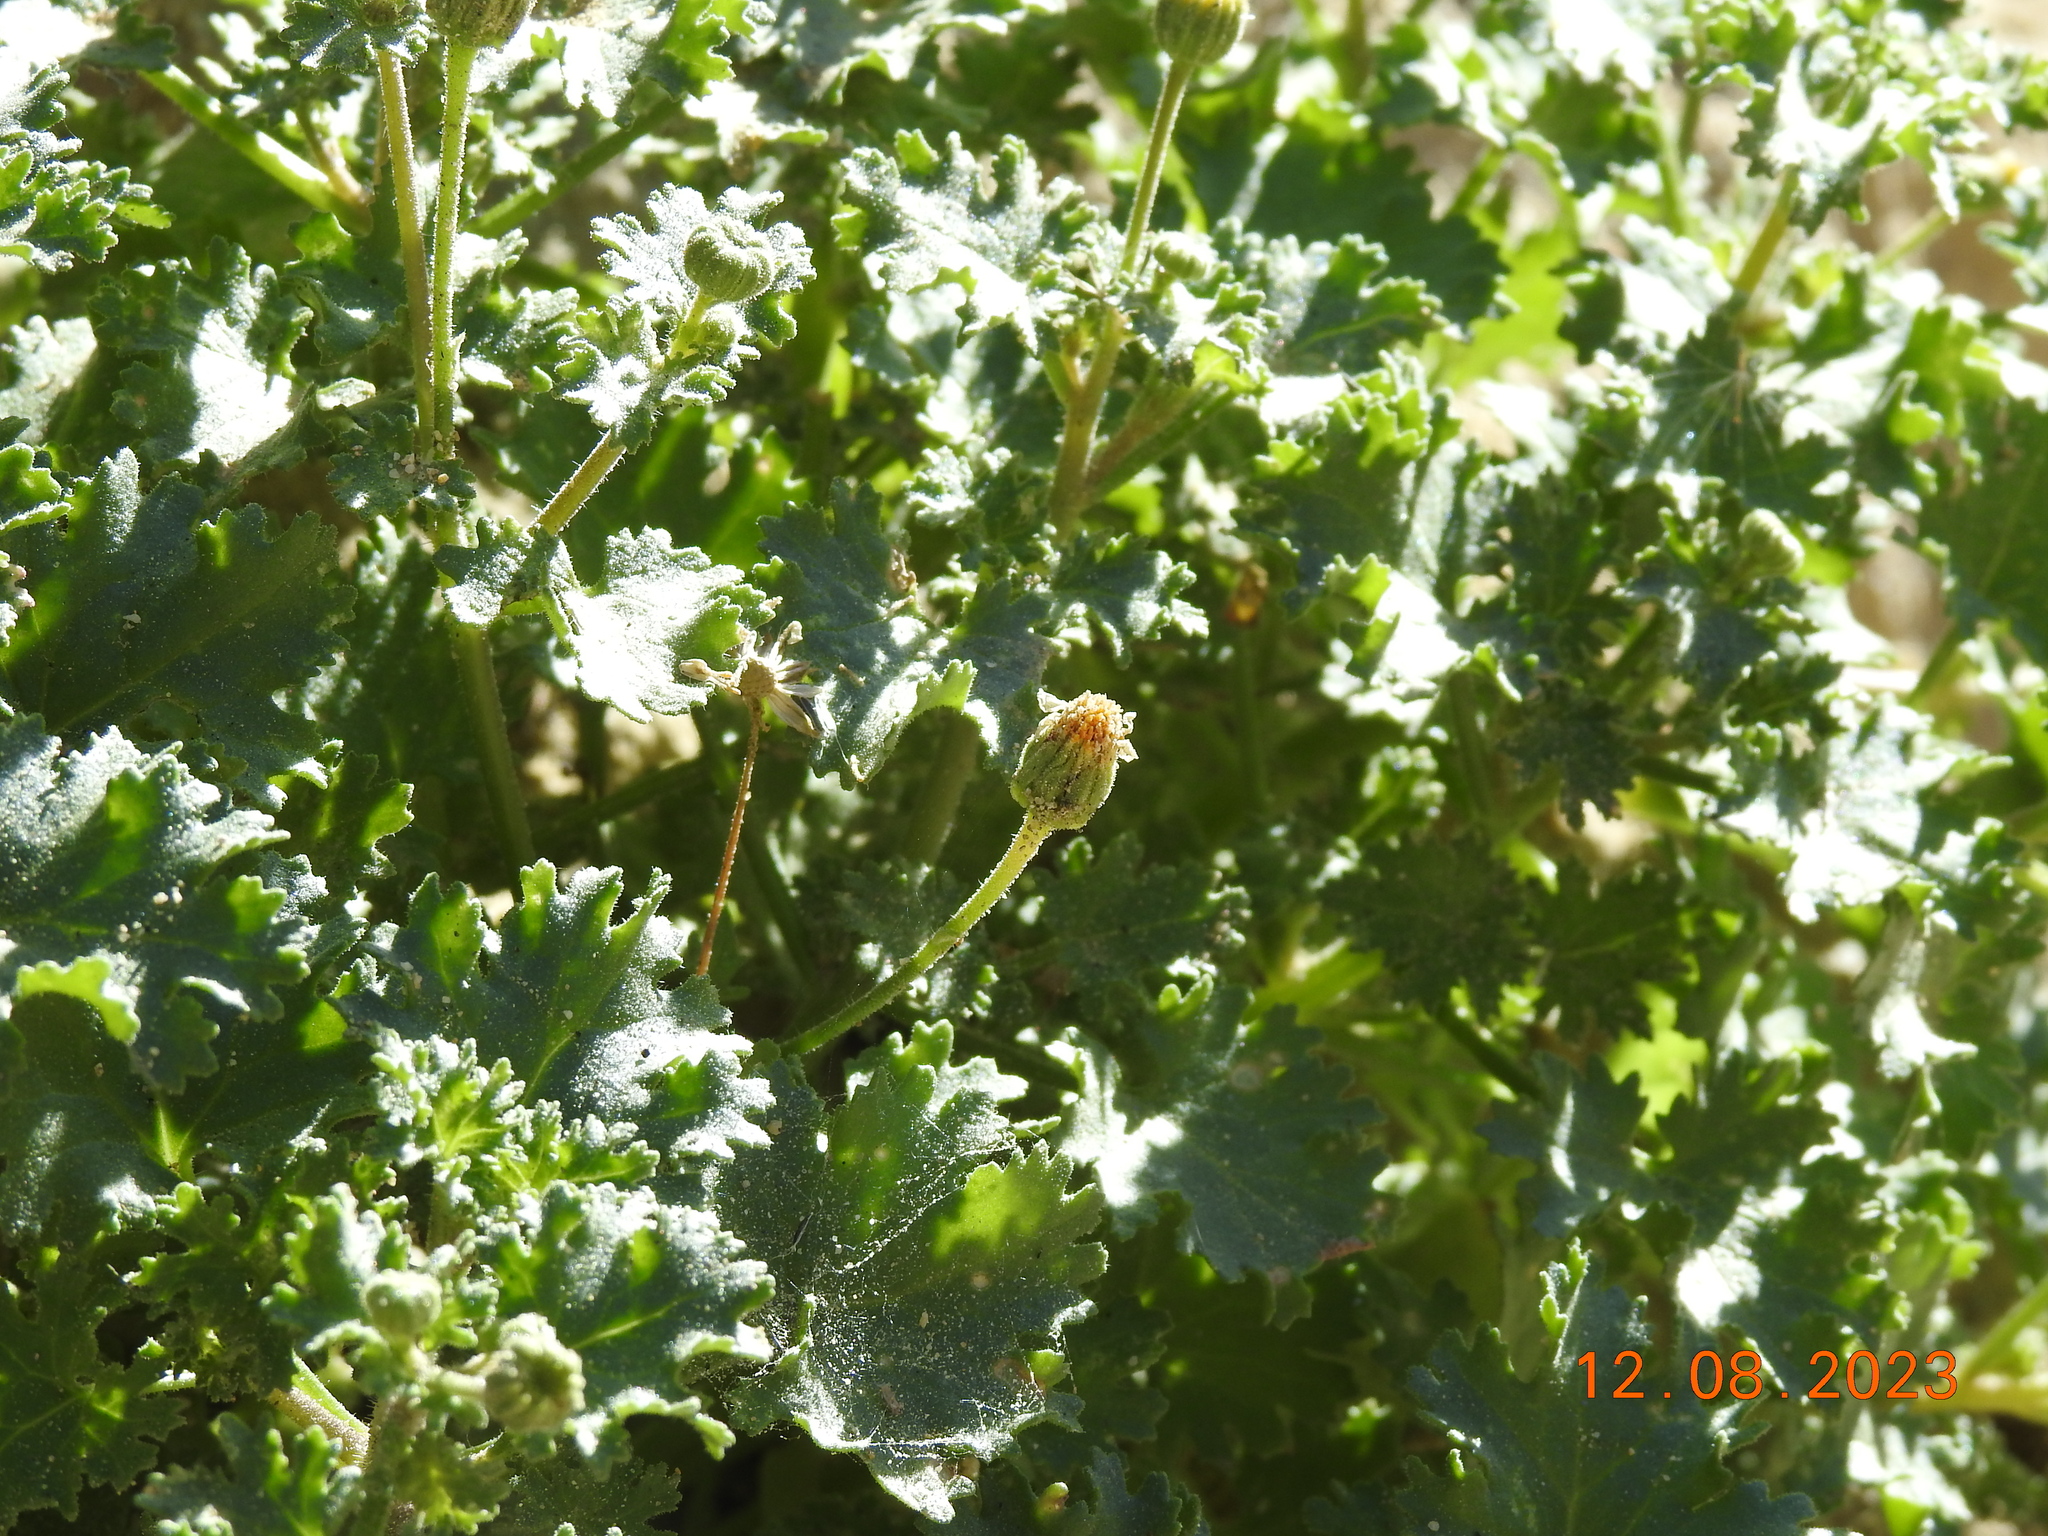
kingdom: Plantae
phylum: Tracheophyta
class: Magnoliopsida
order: Asterales
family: Asteraceae
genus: Laphamia
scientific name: Laphamia emoryi
